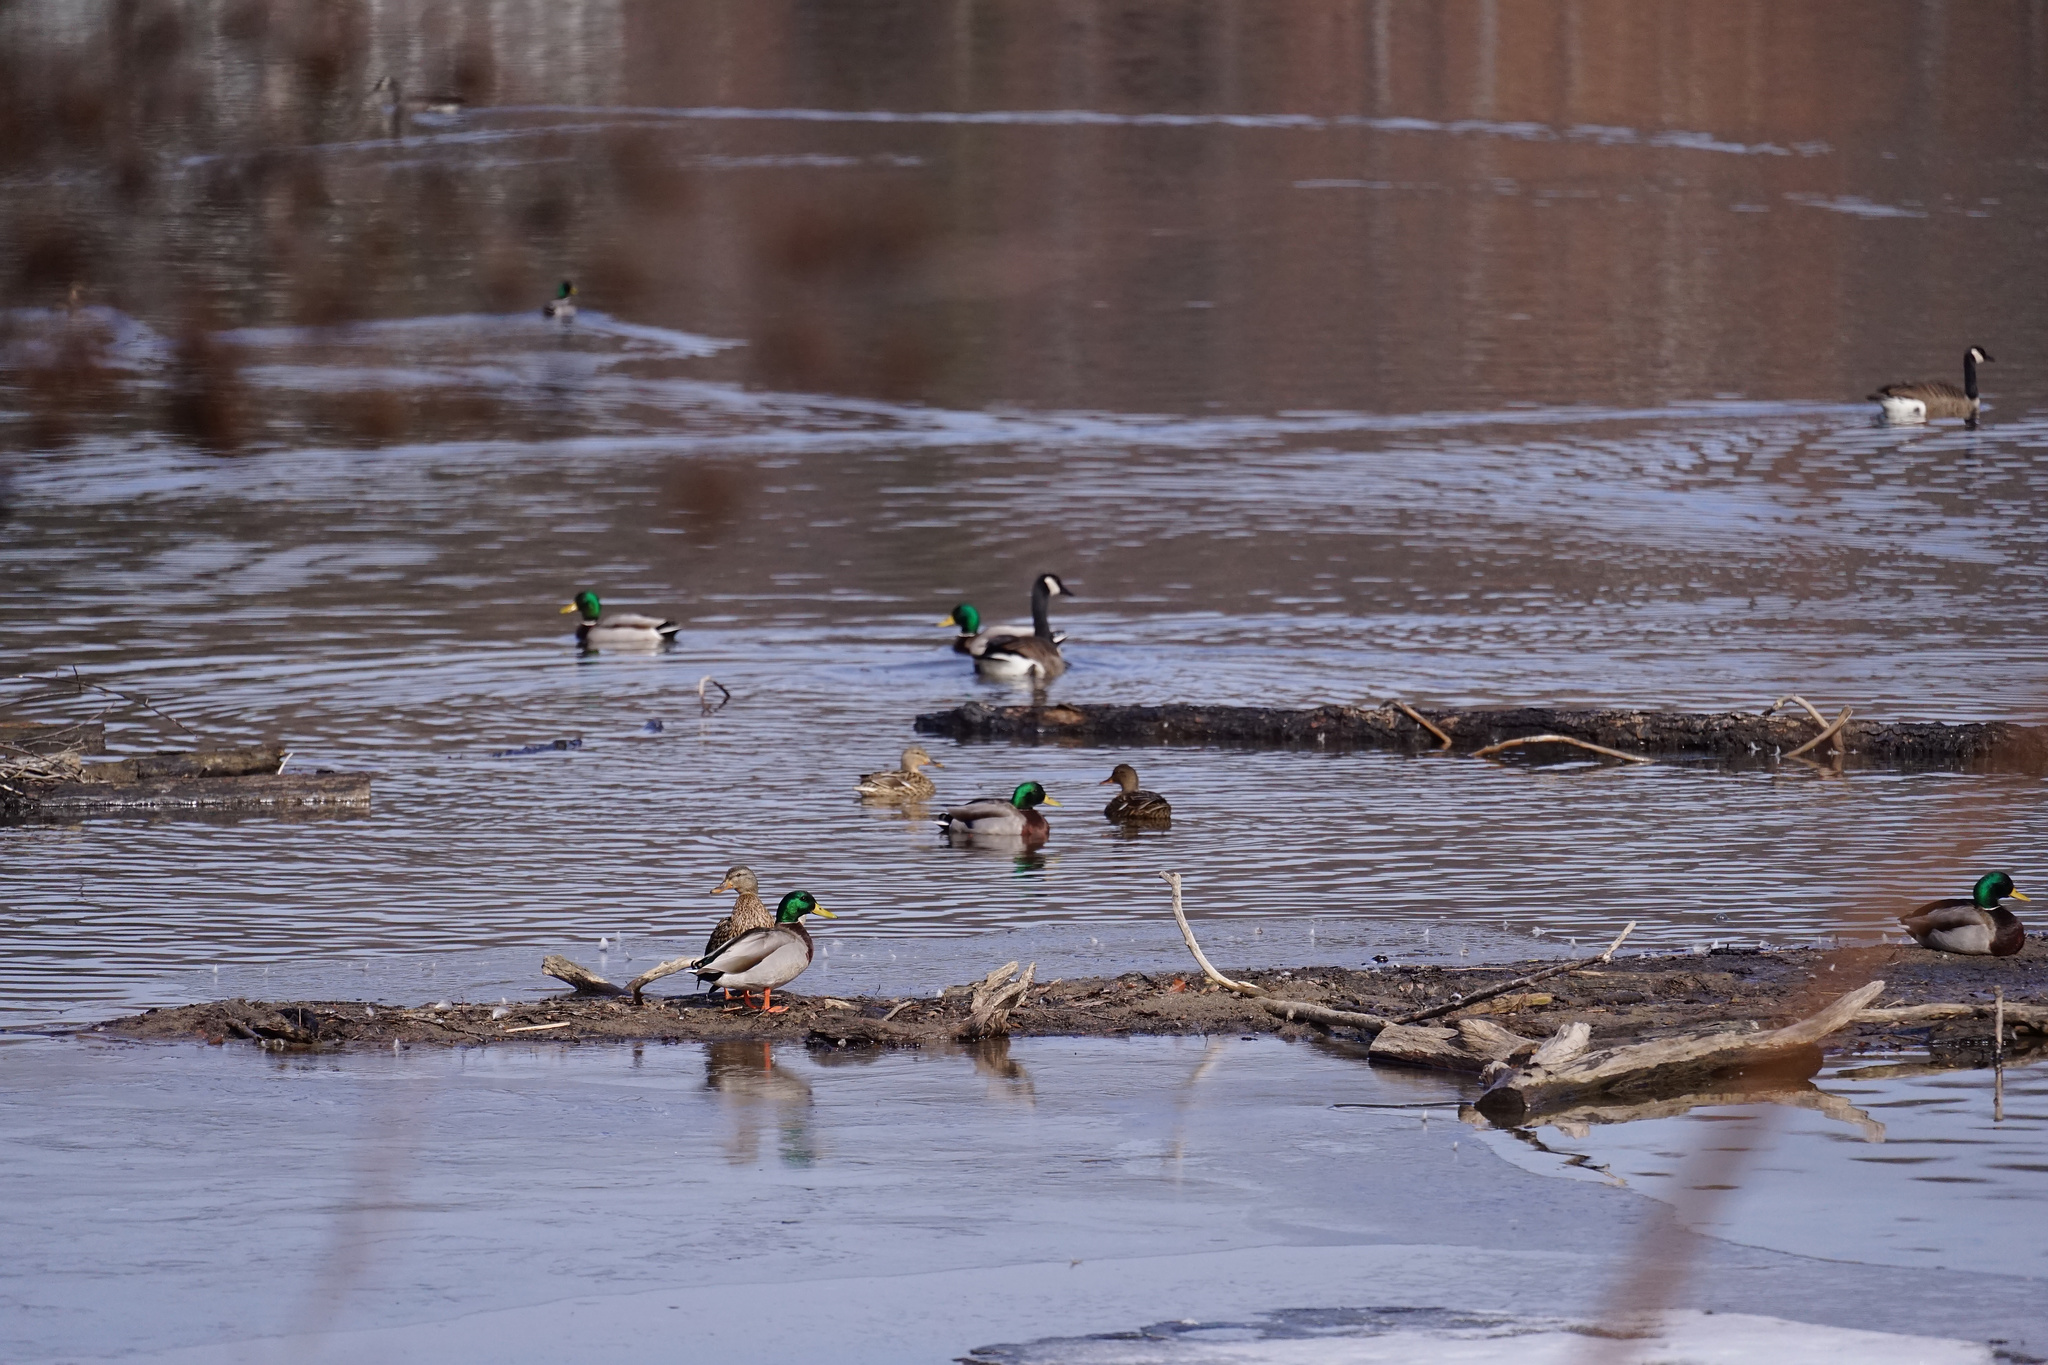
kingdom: Animalia
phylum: Chordata
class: Aves
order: Anseriformes
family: Anatidae
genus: Anas
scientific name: Anas platyrhynchos
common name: Mallard
